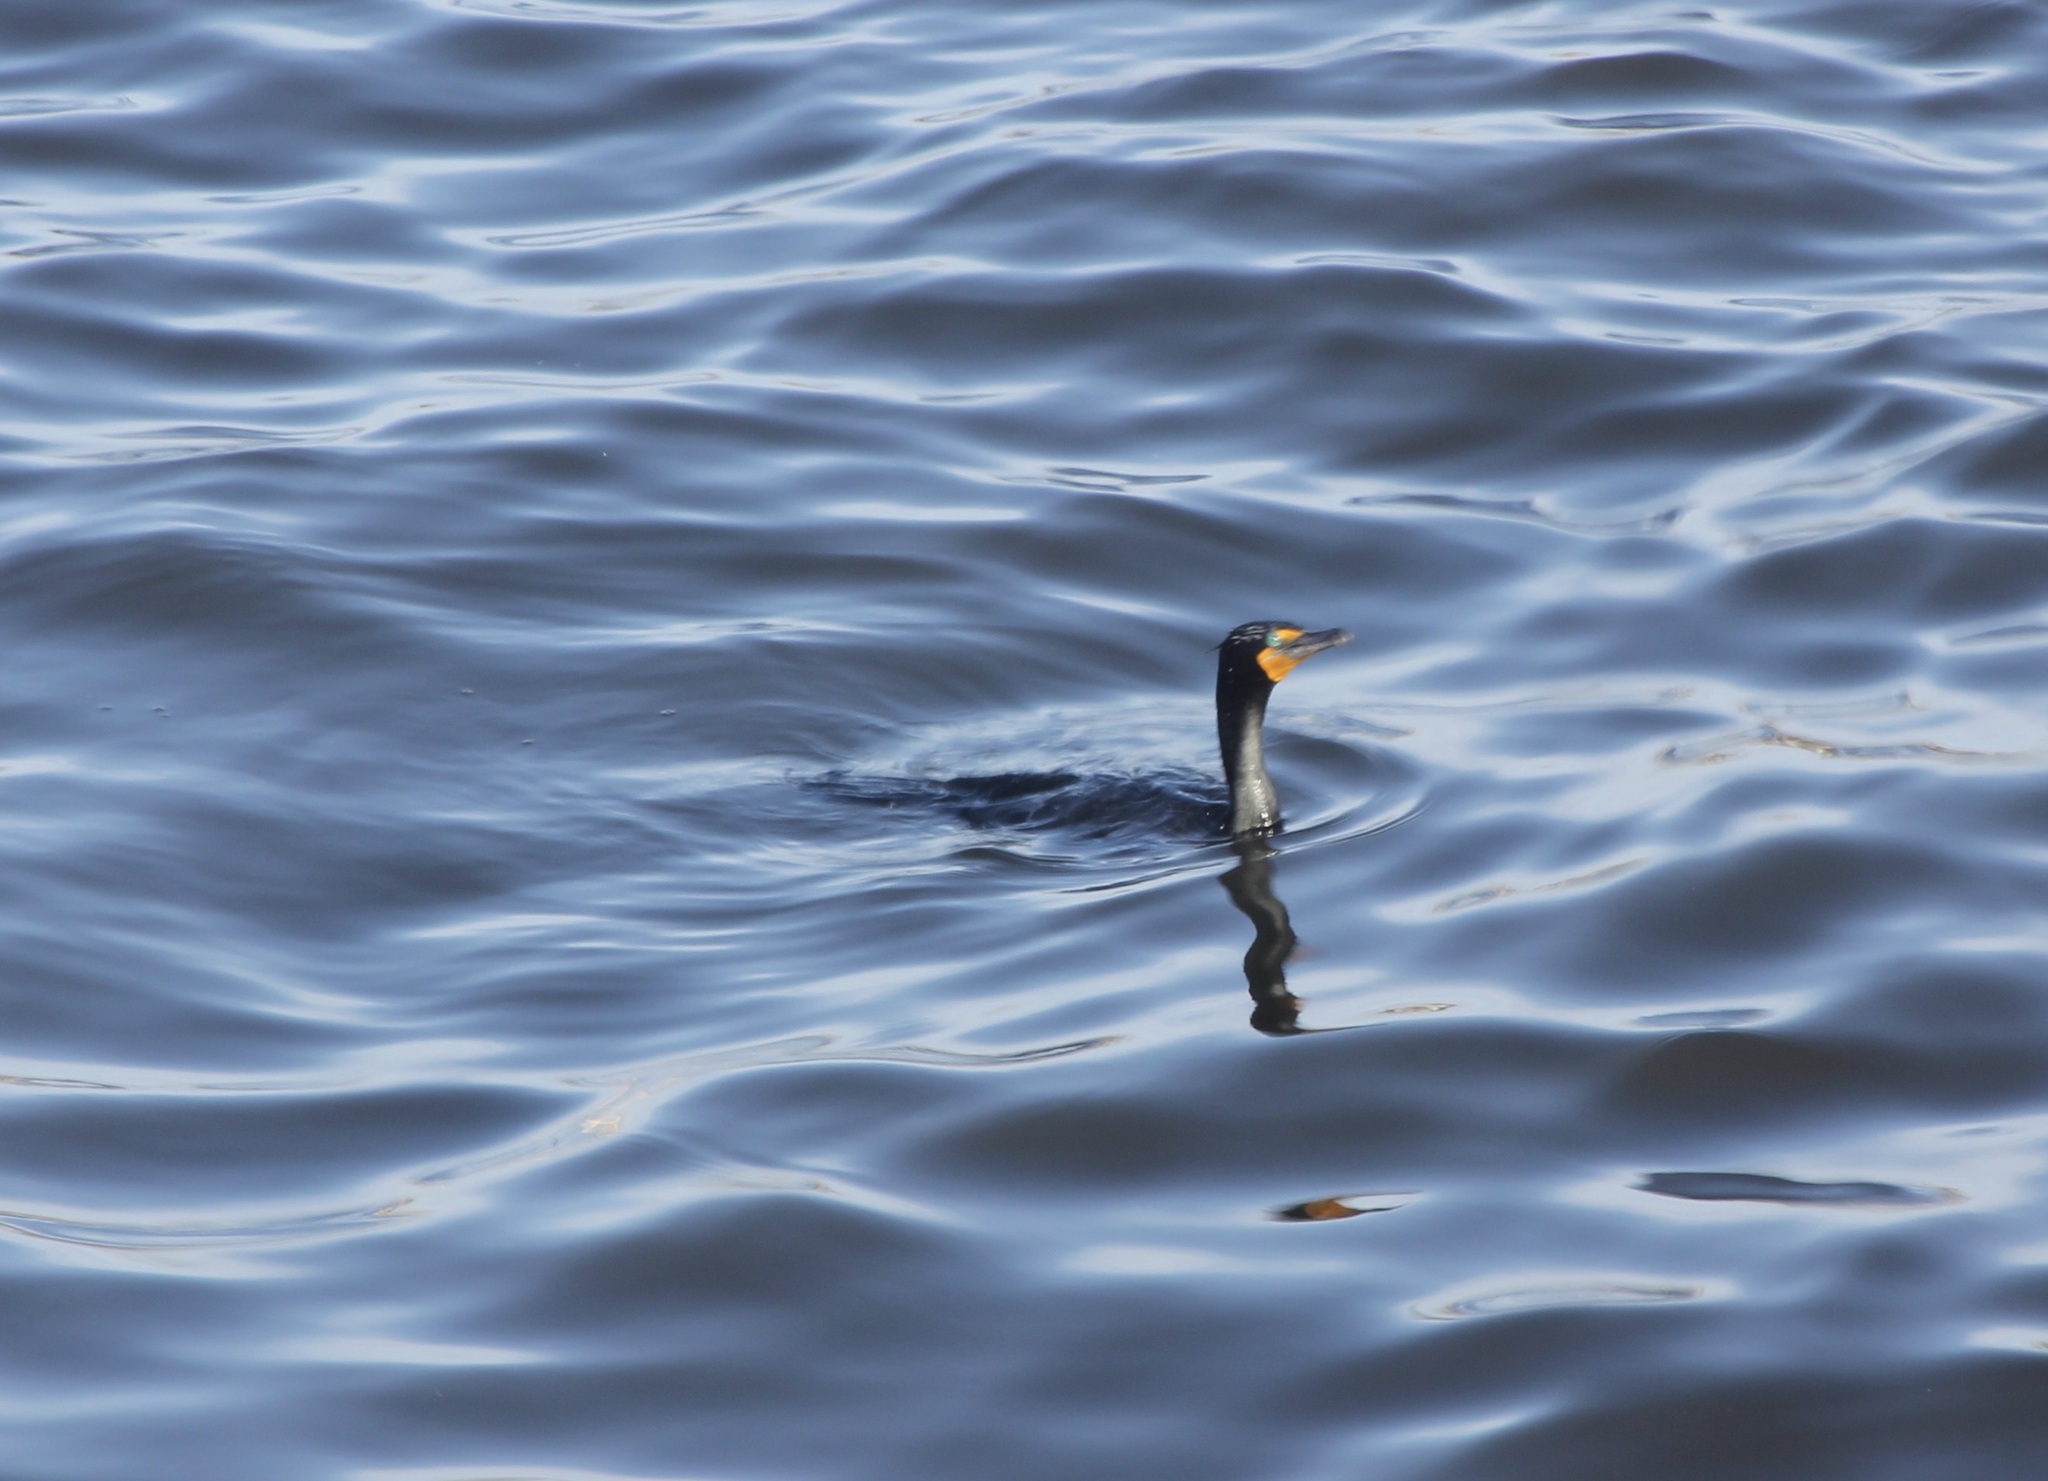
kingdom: Animalia
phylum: Chordata
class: Aves
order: Suliformes
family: Phalacrocoracidae
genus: Phalacrocorax
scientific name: Phalacrocorax auritus
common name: Double-crested cormorant
